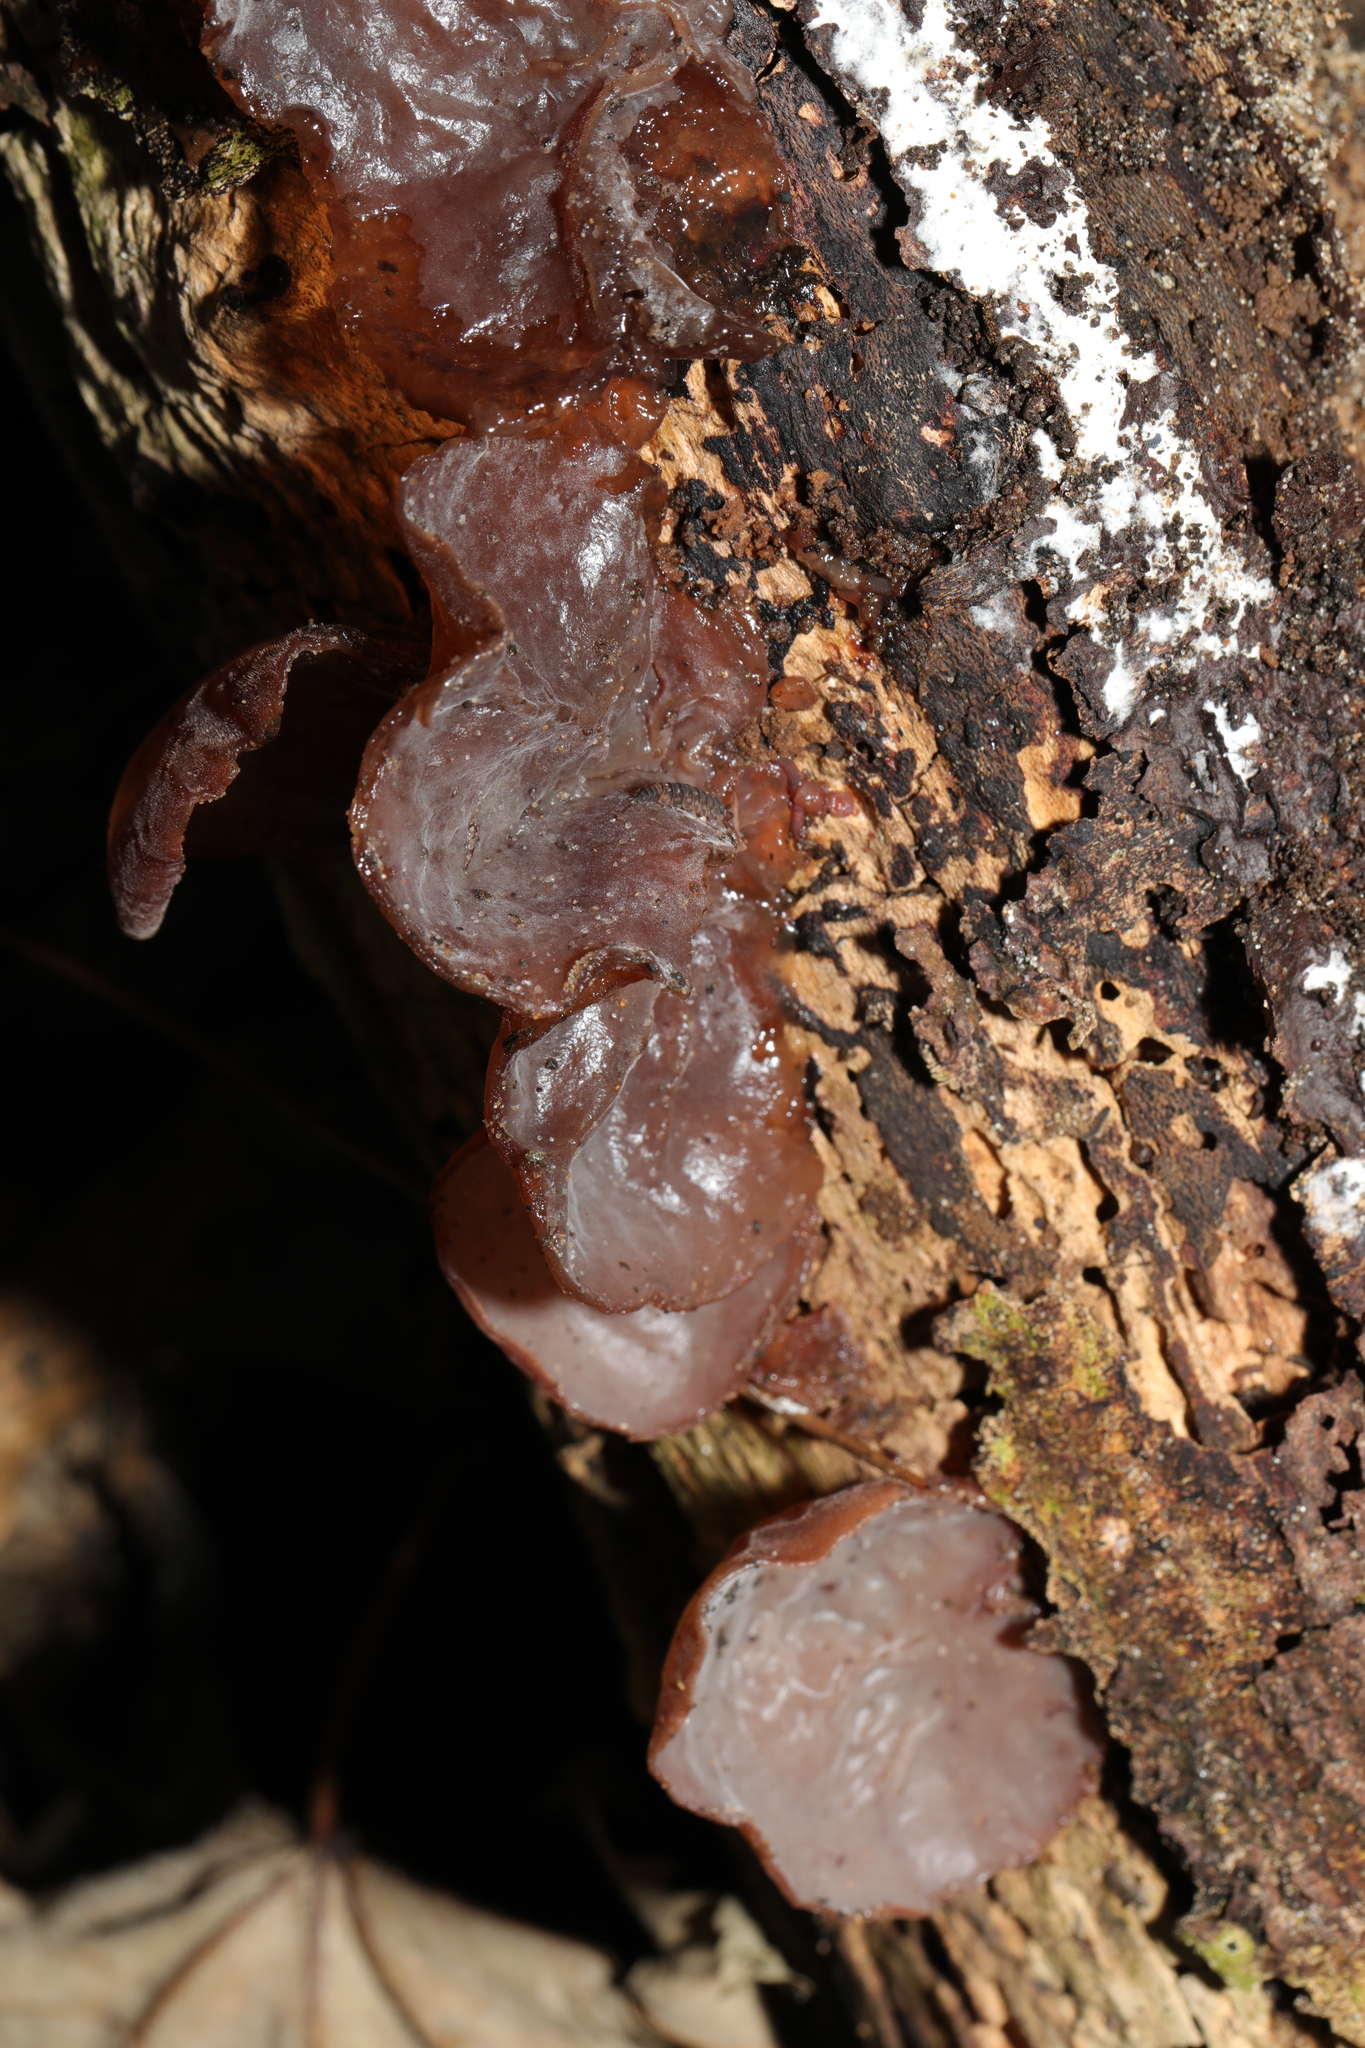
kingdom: Fungi
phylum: Basidiomycota
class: Agaricomycetes
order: Auriculariales
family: Auriculariaceae
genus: Auricularia
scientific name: Auricularia auricula-judae
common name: Jelly ear
